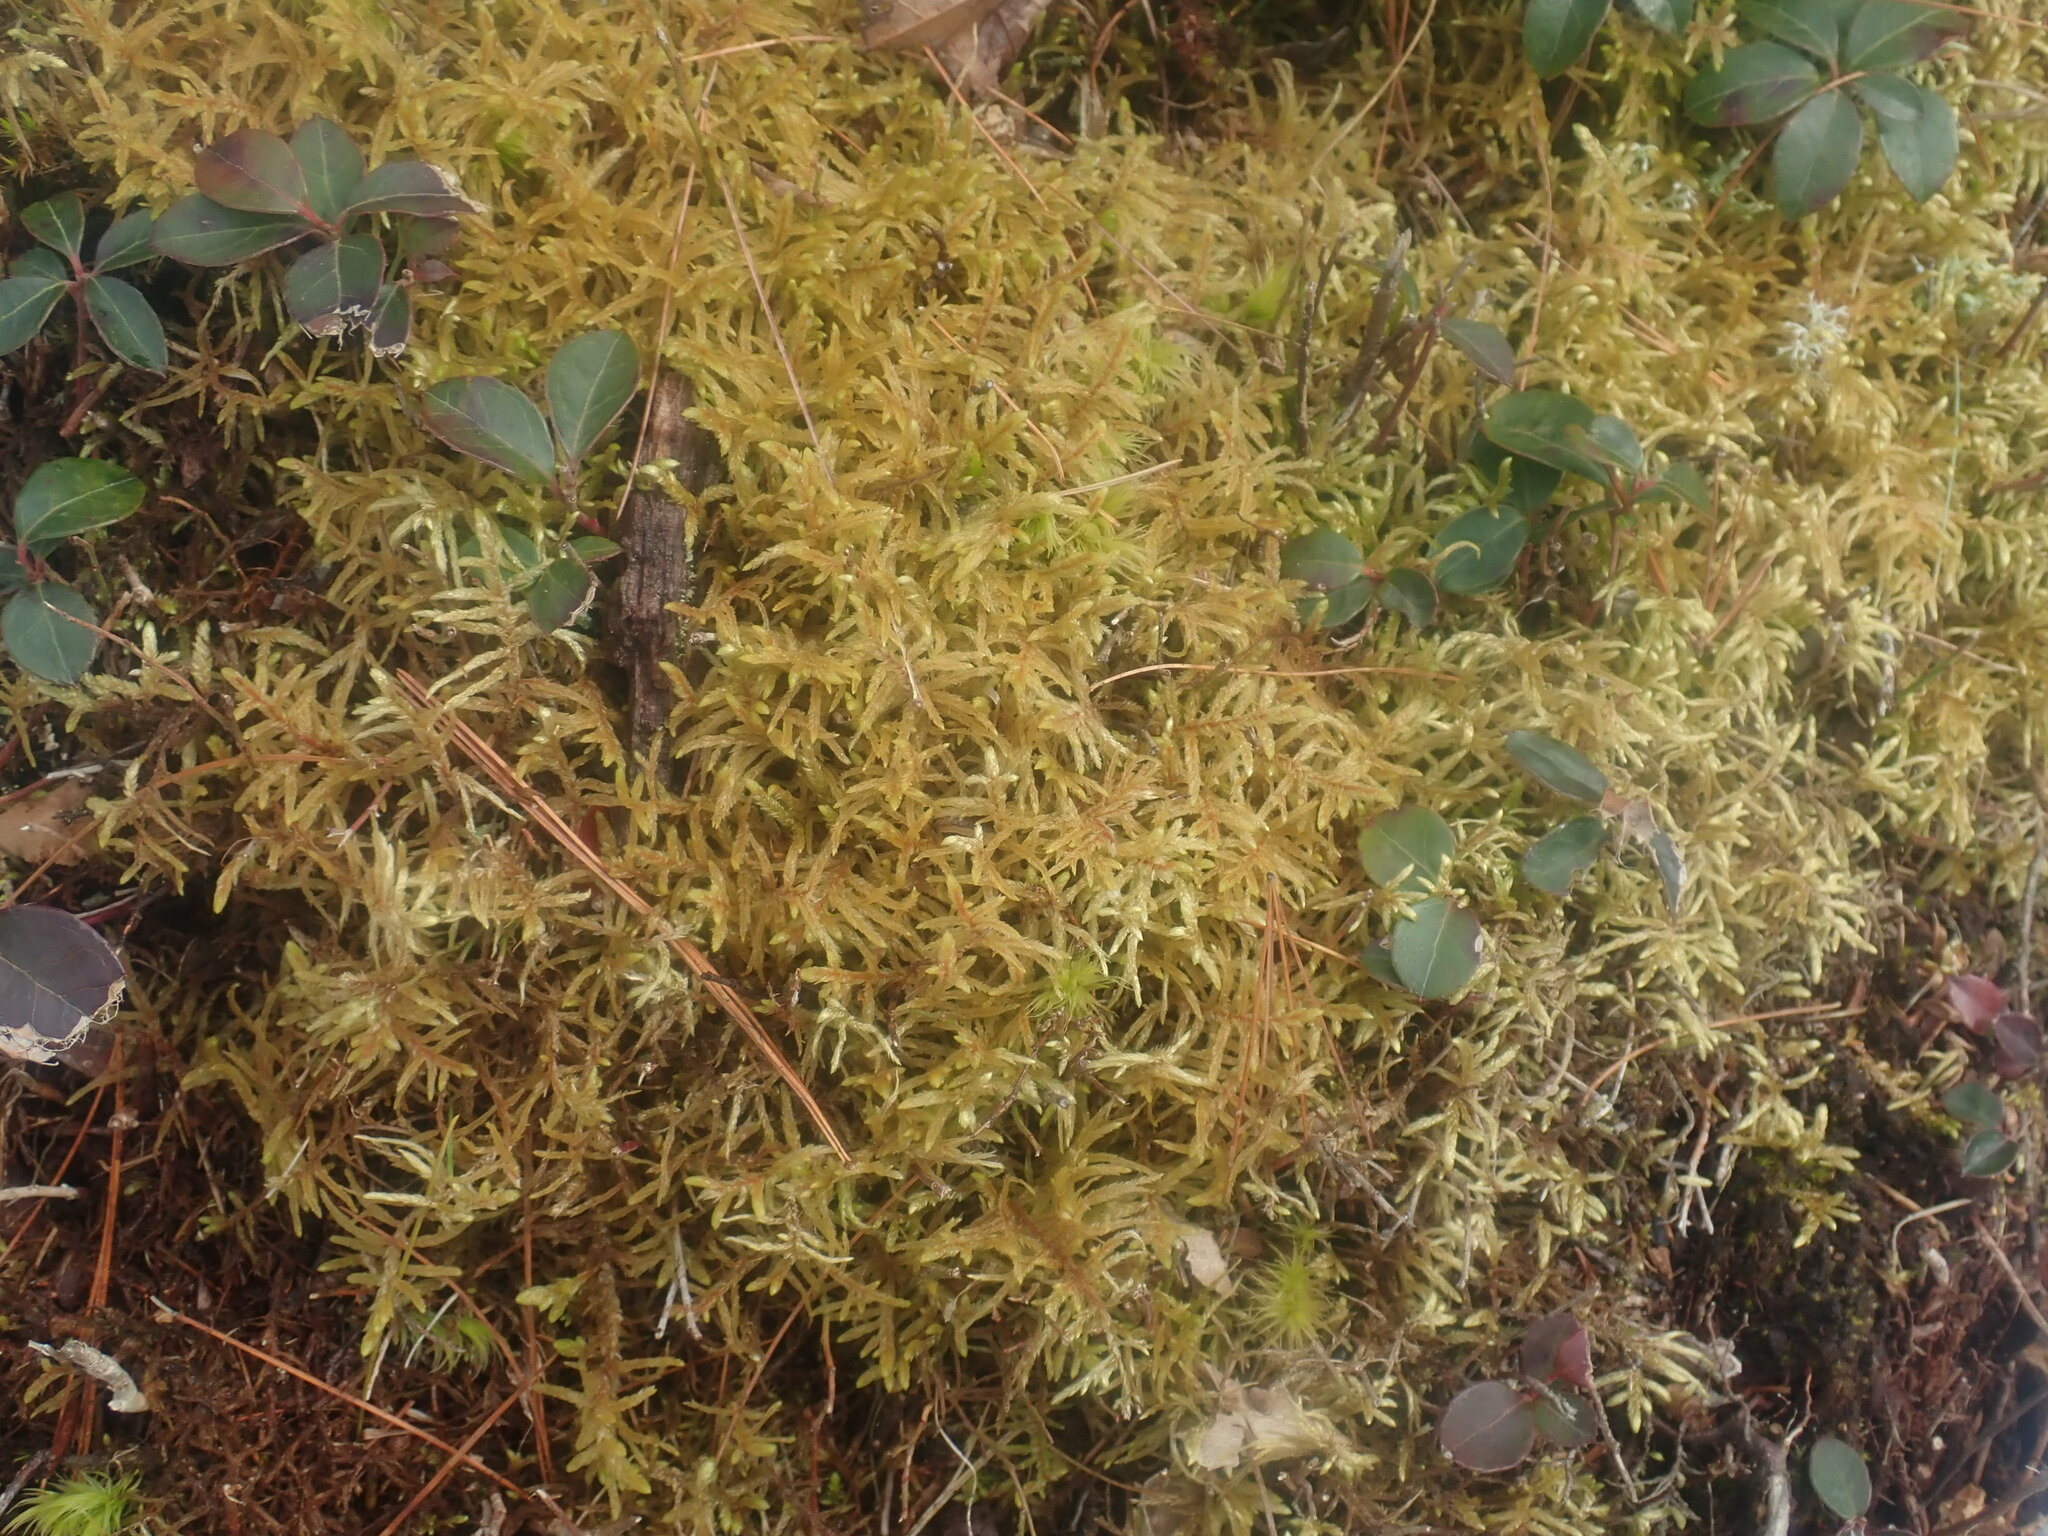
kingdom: Plantae
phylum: Bryophyta
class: Bryopsida
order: Hypnales
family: Hylocomiaceae
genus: Pleurozium
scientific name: Pleurozium schreberi
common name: Red-stemmed feather moss
